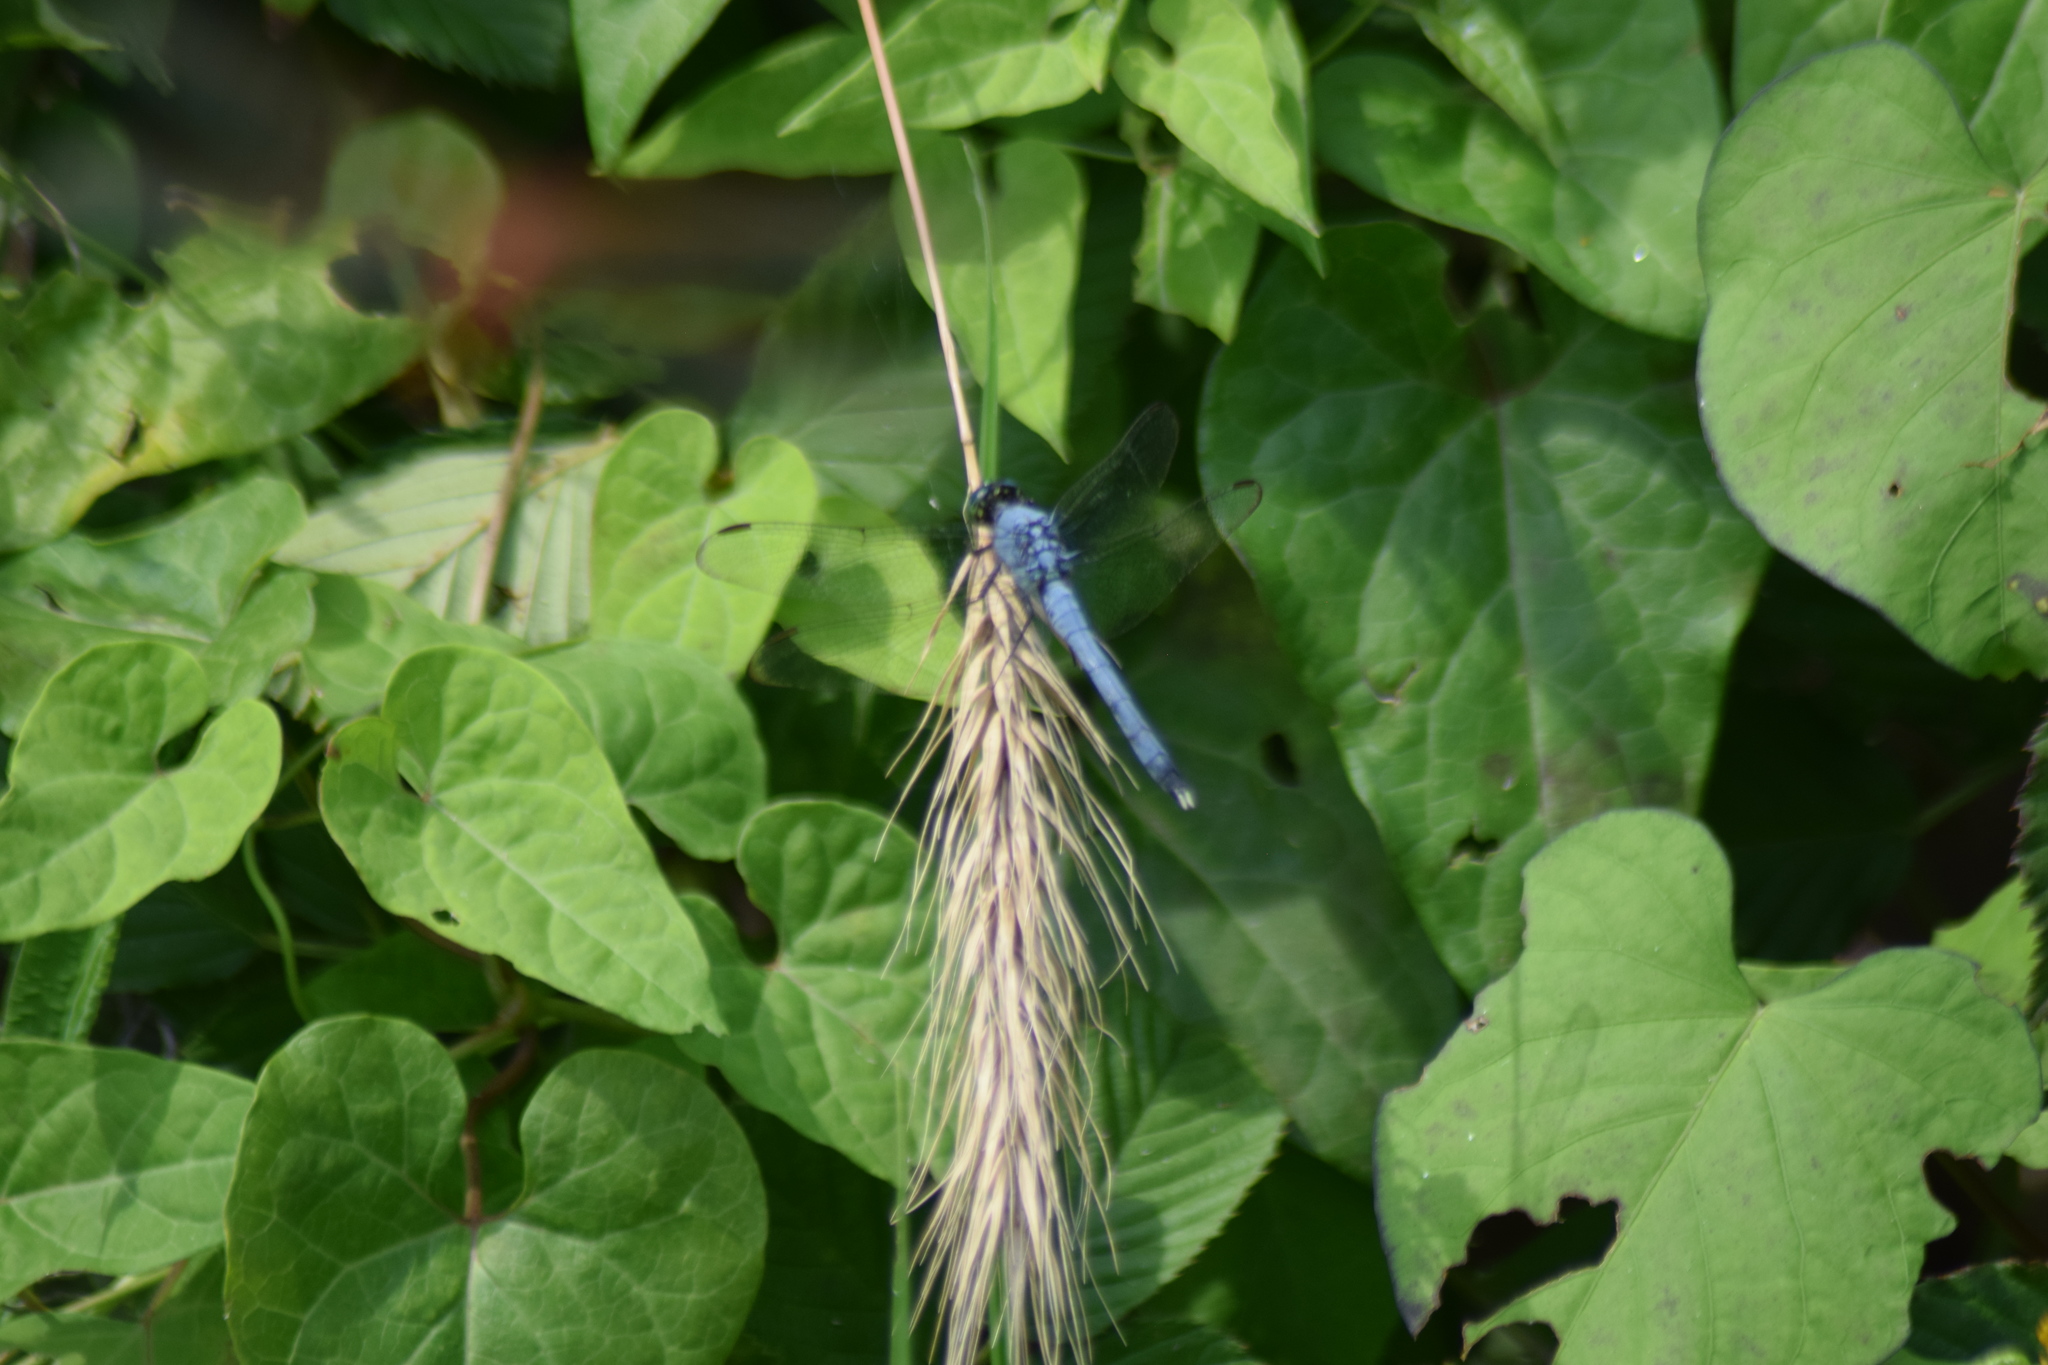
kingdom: Animalia
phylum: Arthropoda
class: Insecta
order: Odonata
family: Libellulidae
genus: Erythemis
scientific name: Erythemis simplicicollis
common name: Eastern pondhawk
